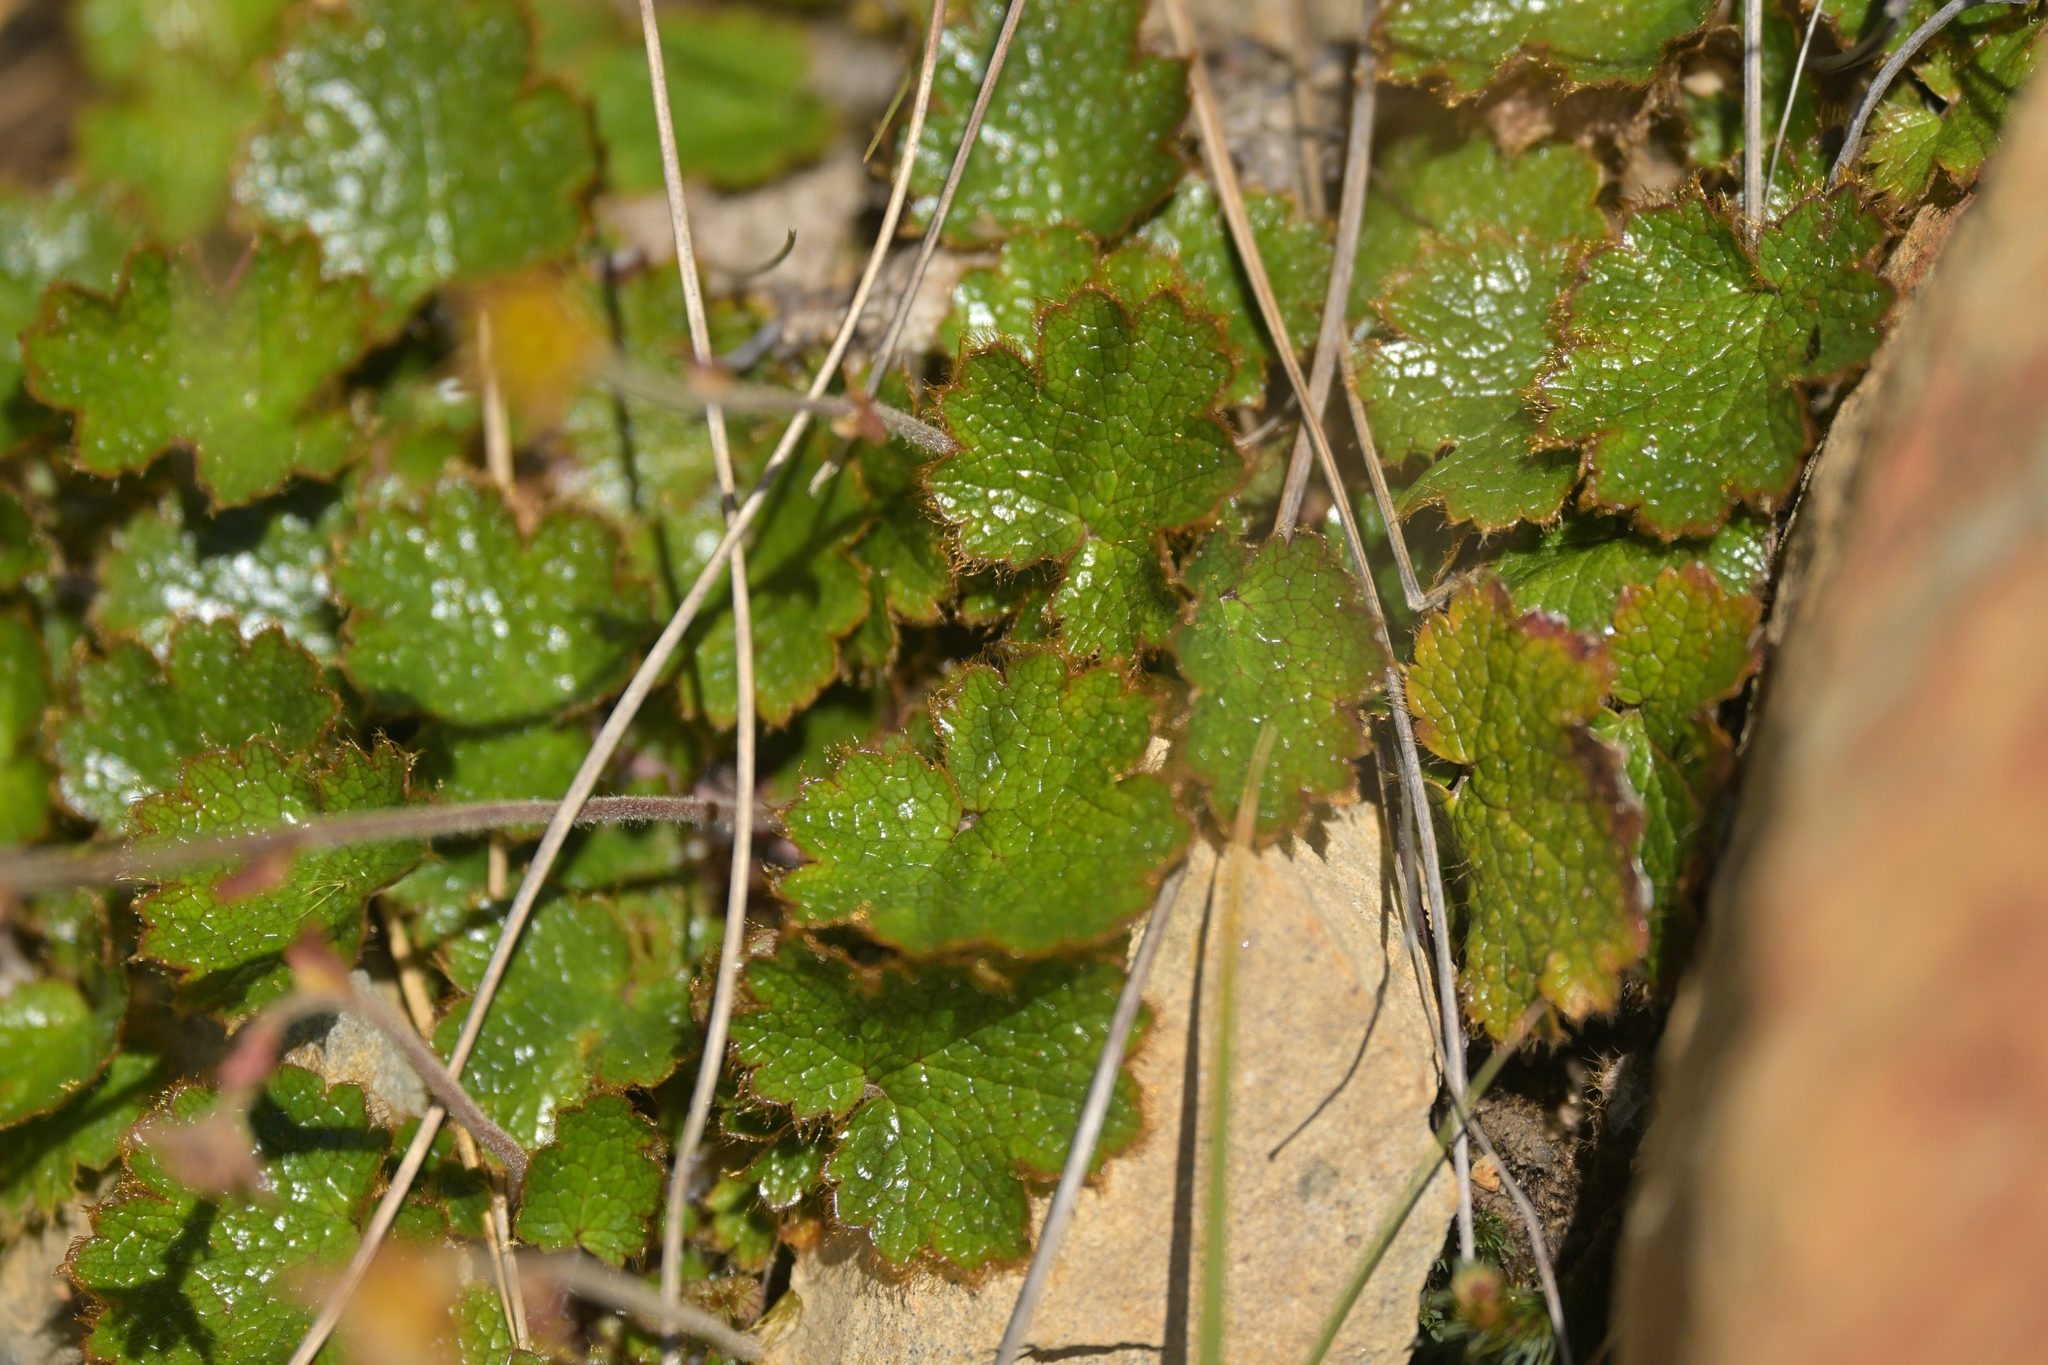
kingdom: Plantae
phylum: Tracheophyta
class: Magnoliopsida
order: Rosales
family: Rosaceae
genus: Geum
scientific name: Geum uniflorum
